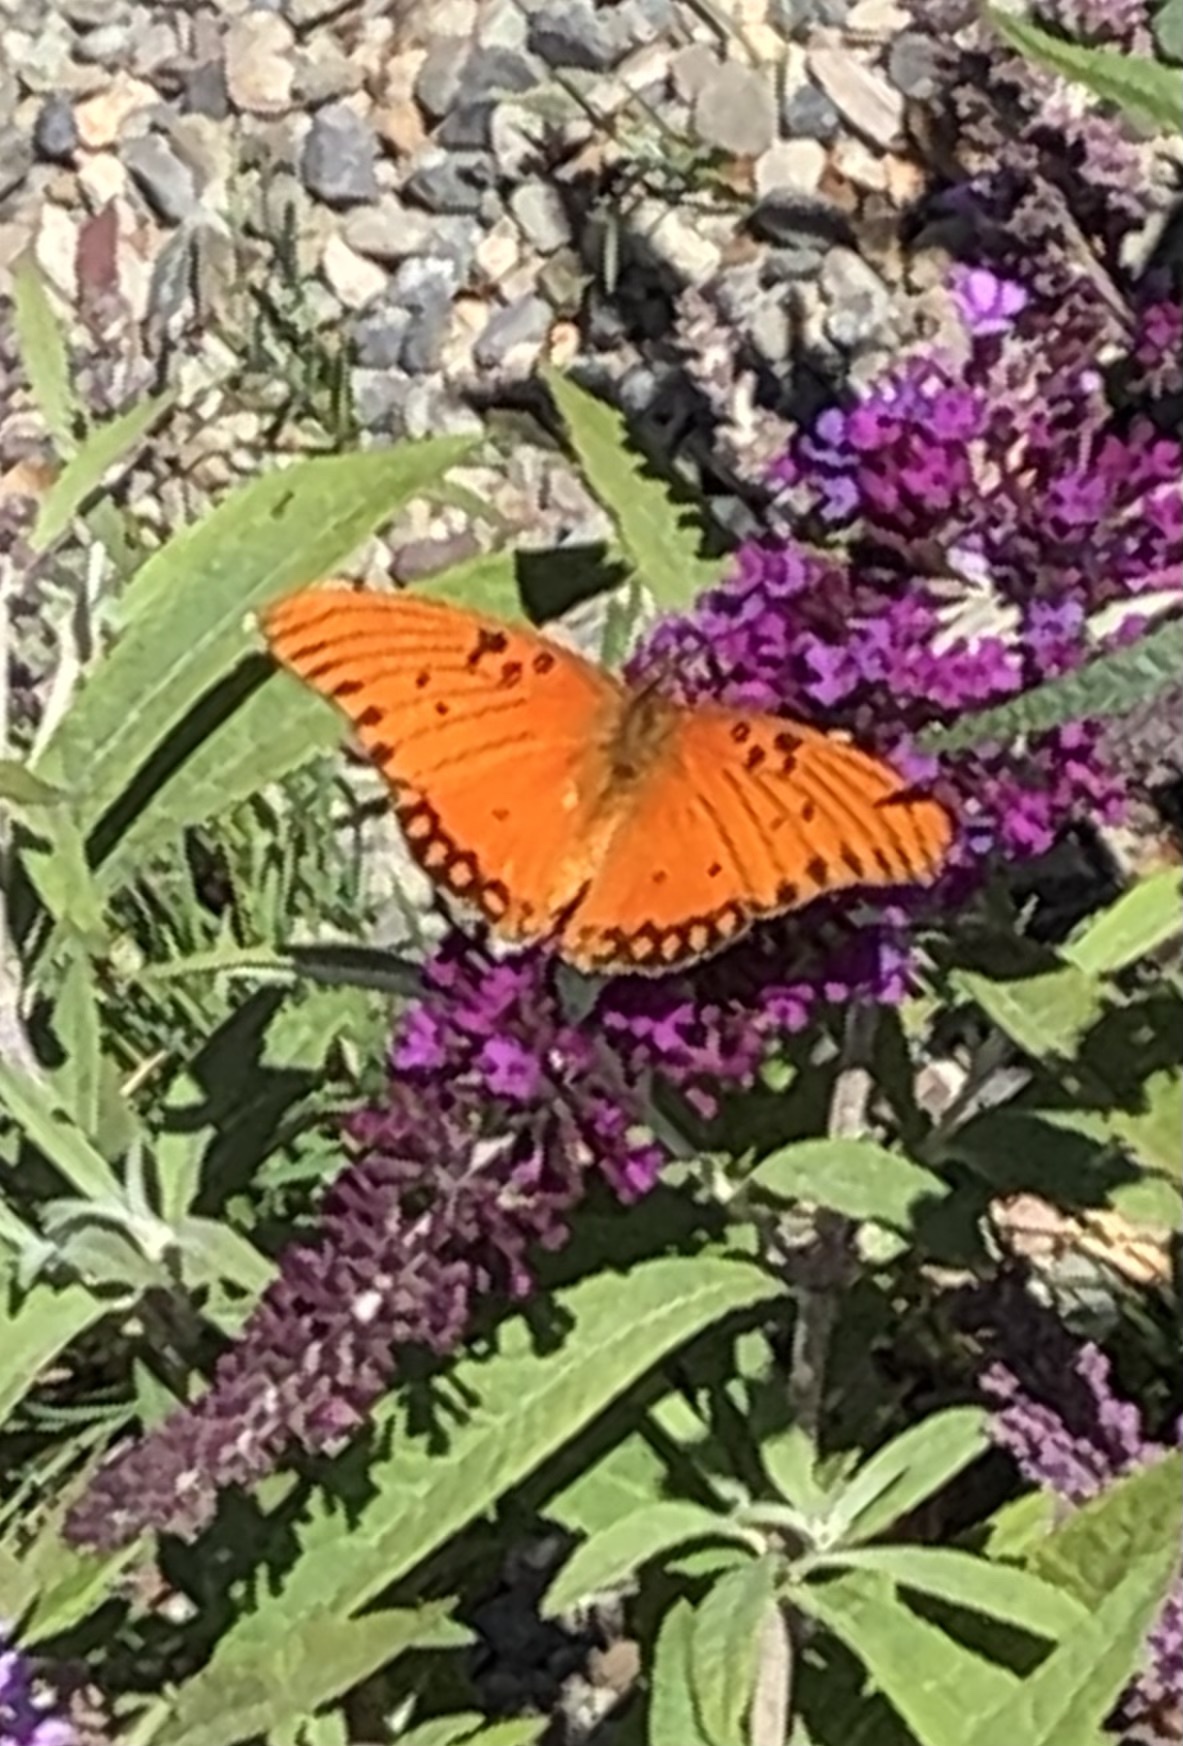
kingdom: Animalia
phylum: Arthropoda
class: Insecta
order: Lepidoptera
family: Nymphalidae
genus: Dione
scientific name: Dione vanillae
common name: Gulf fritillary
